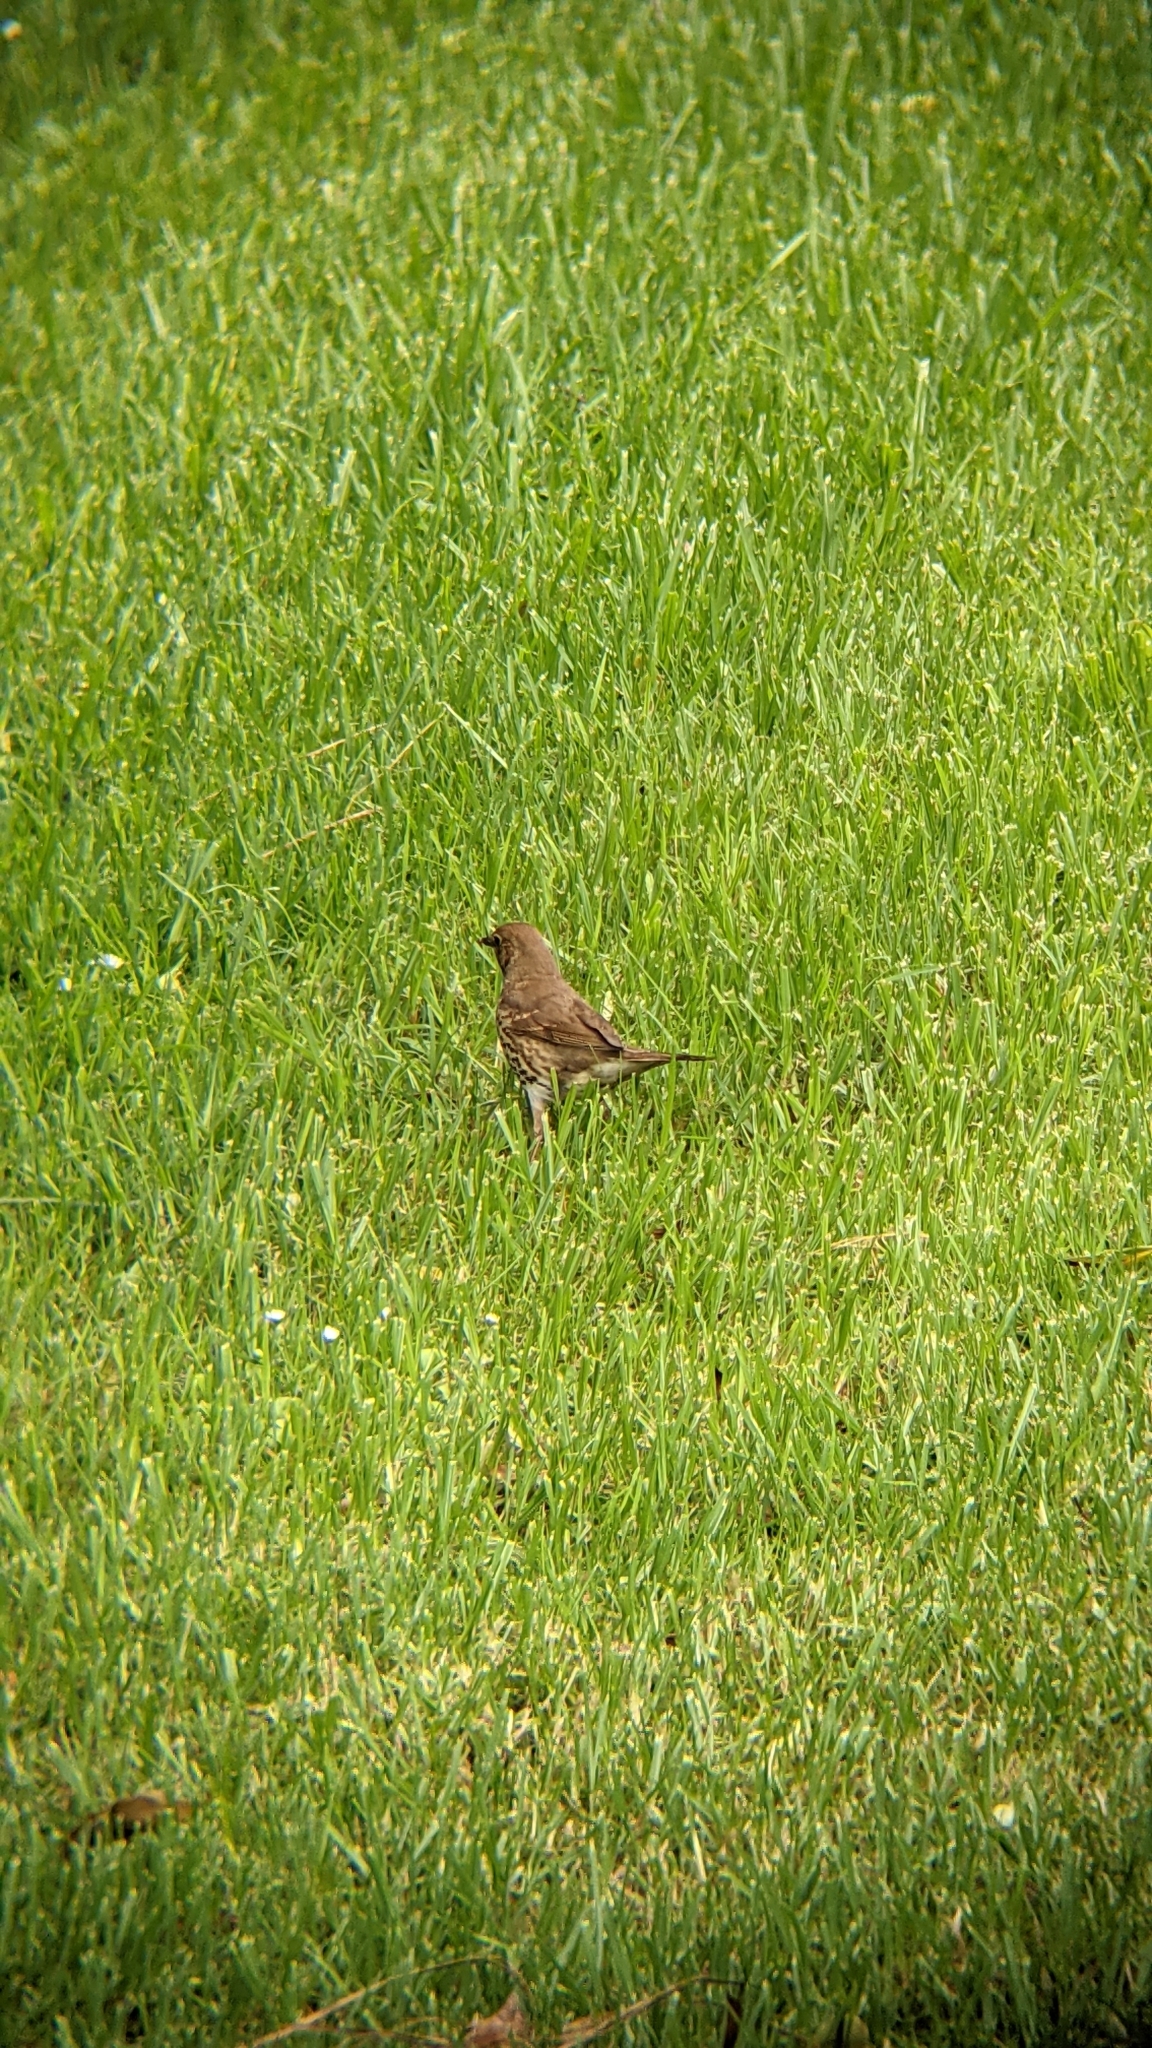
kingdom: Animalia
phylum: Chordata
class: Aves
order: Passeriformes
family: Turdidae
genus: Turdus
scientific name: Turdus philomelos
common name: Song thrush
